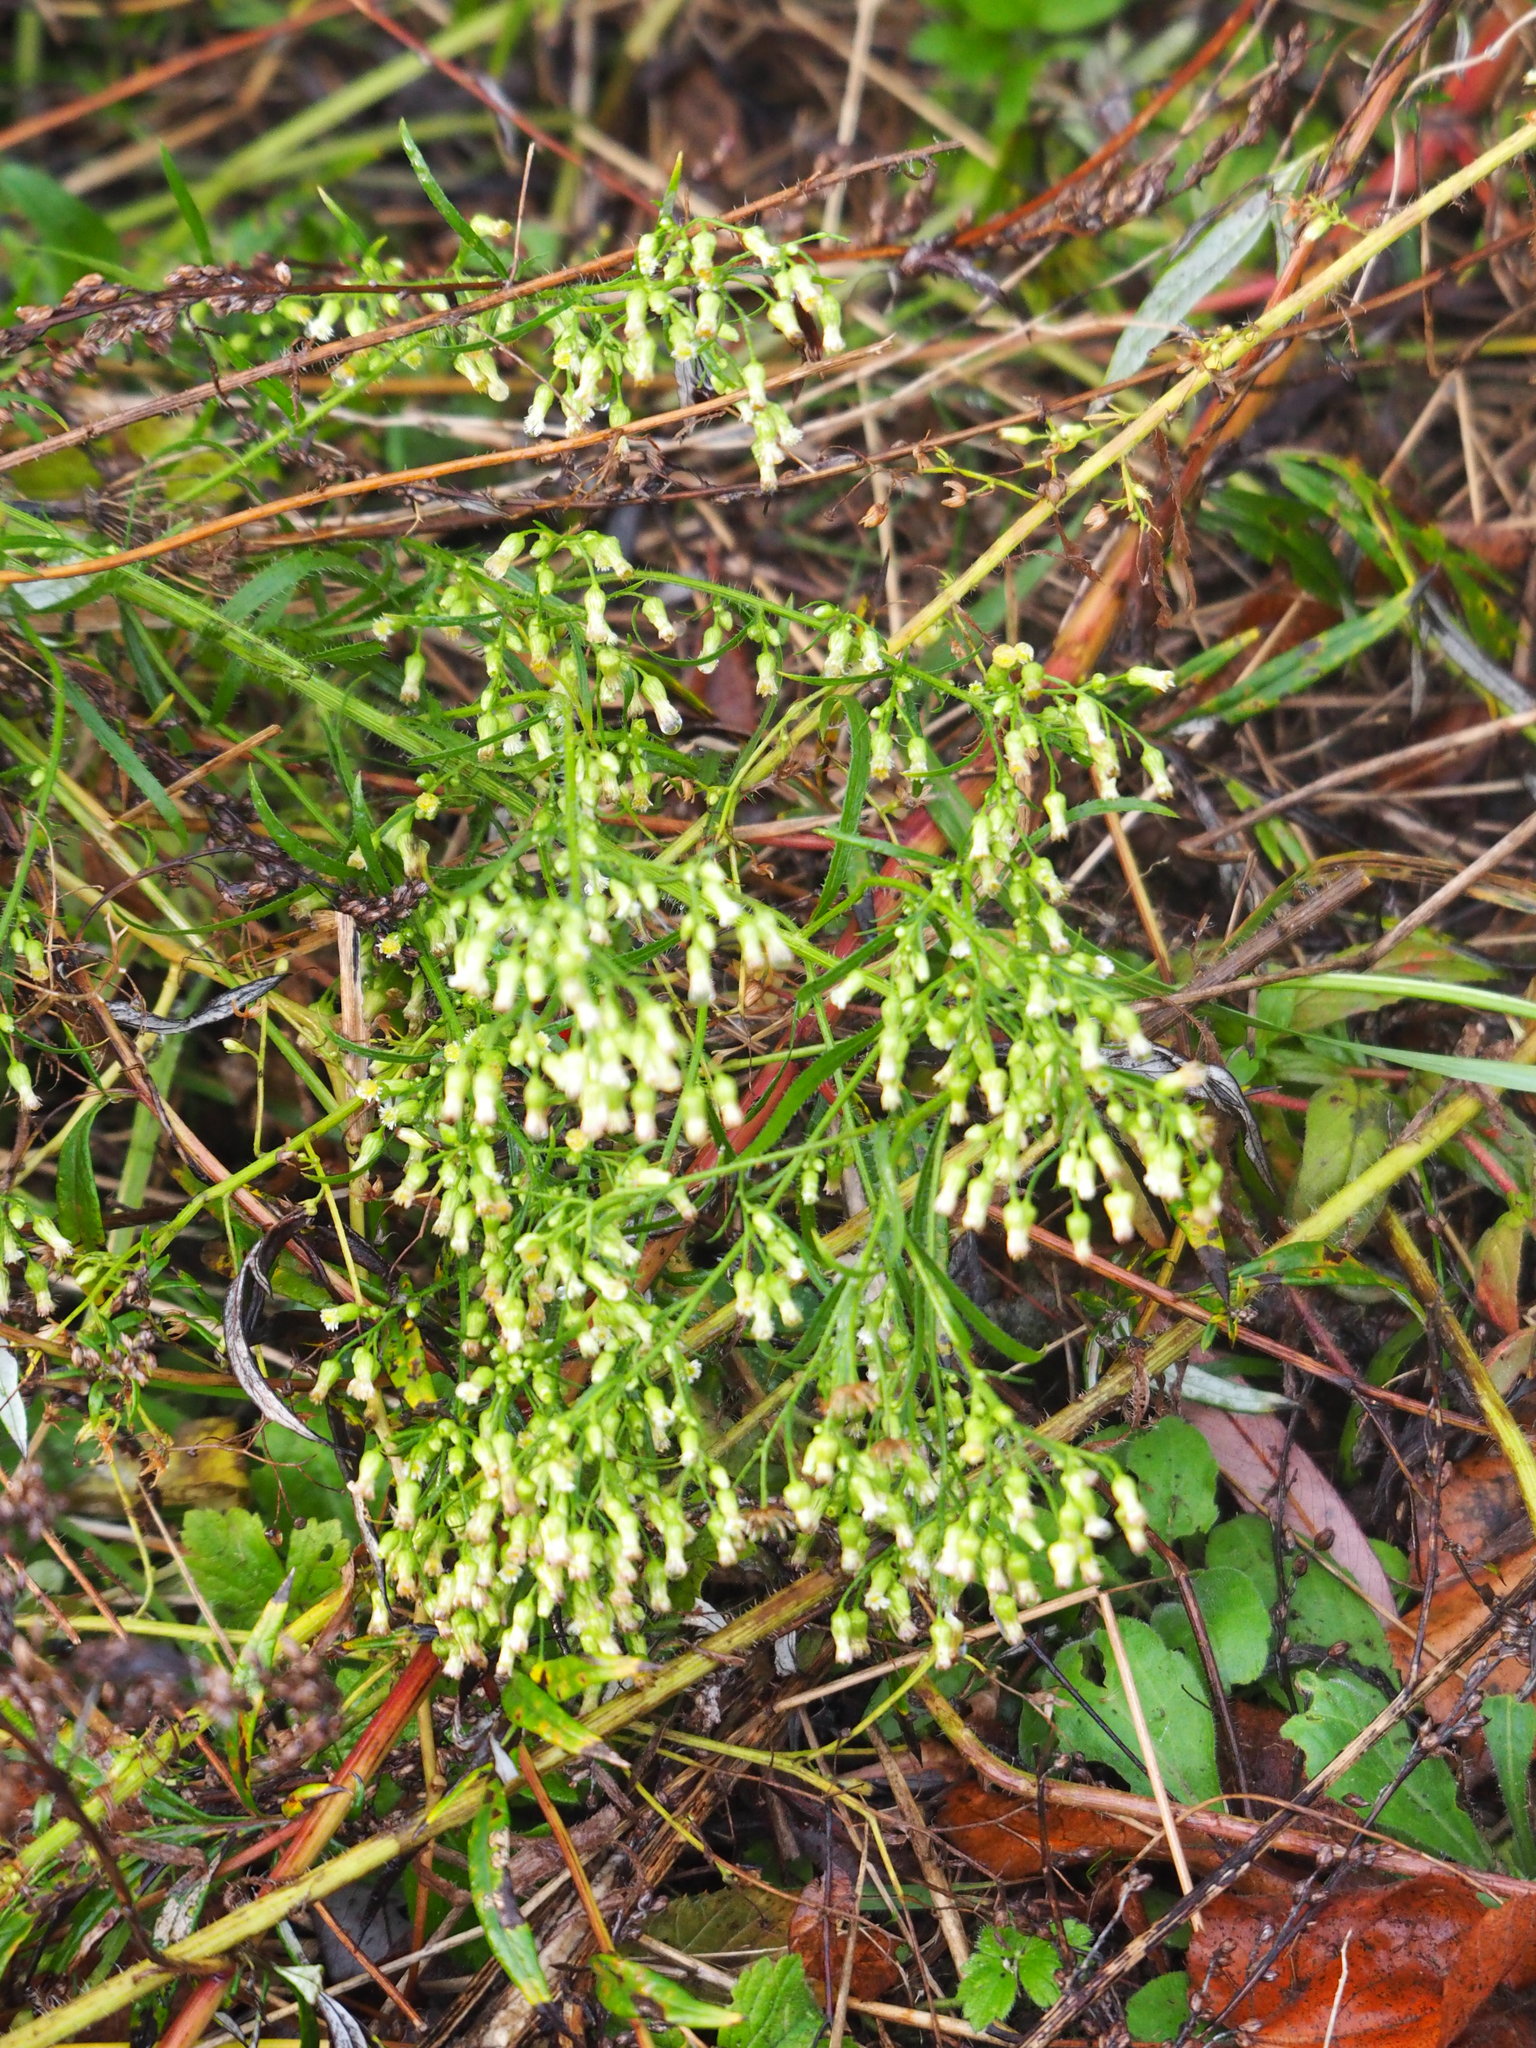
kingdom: Plantae
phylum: Tracheophyta
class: Magnoliopsida
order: Asterales
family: Asteraceae
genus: Erigeron
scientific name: Erigeron canadensis
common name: Canadian fleabane
